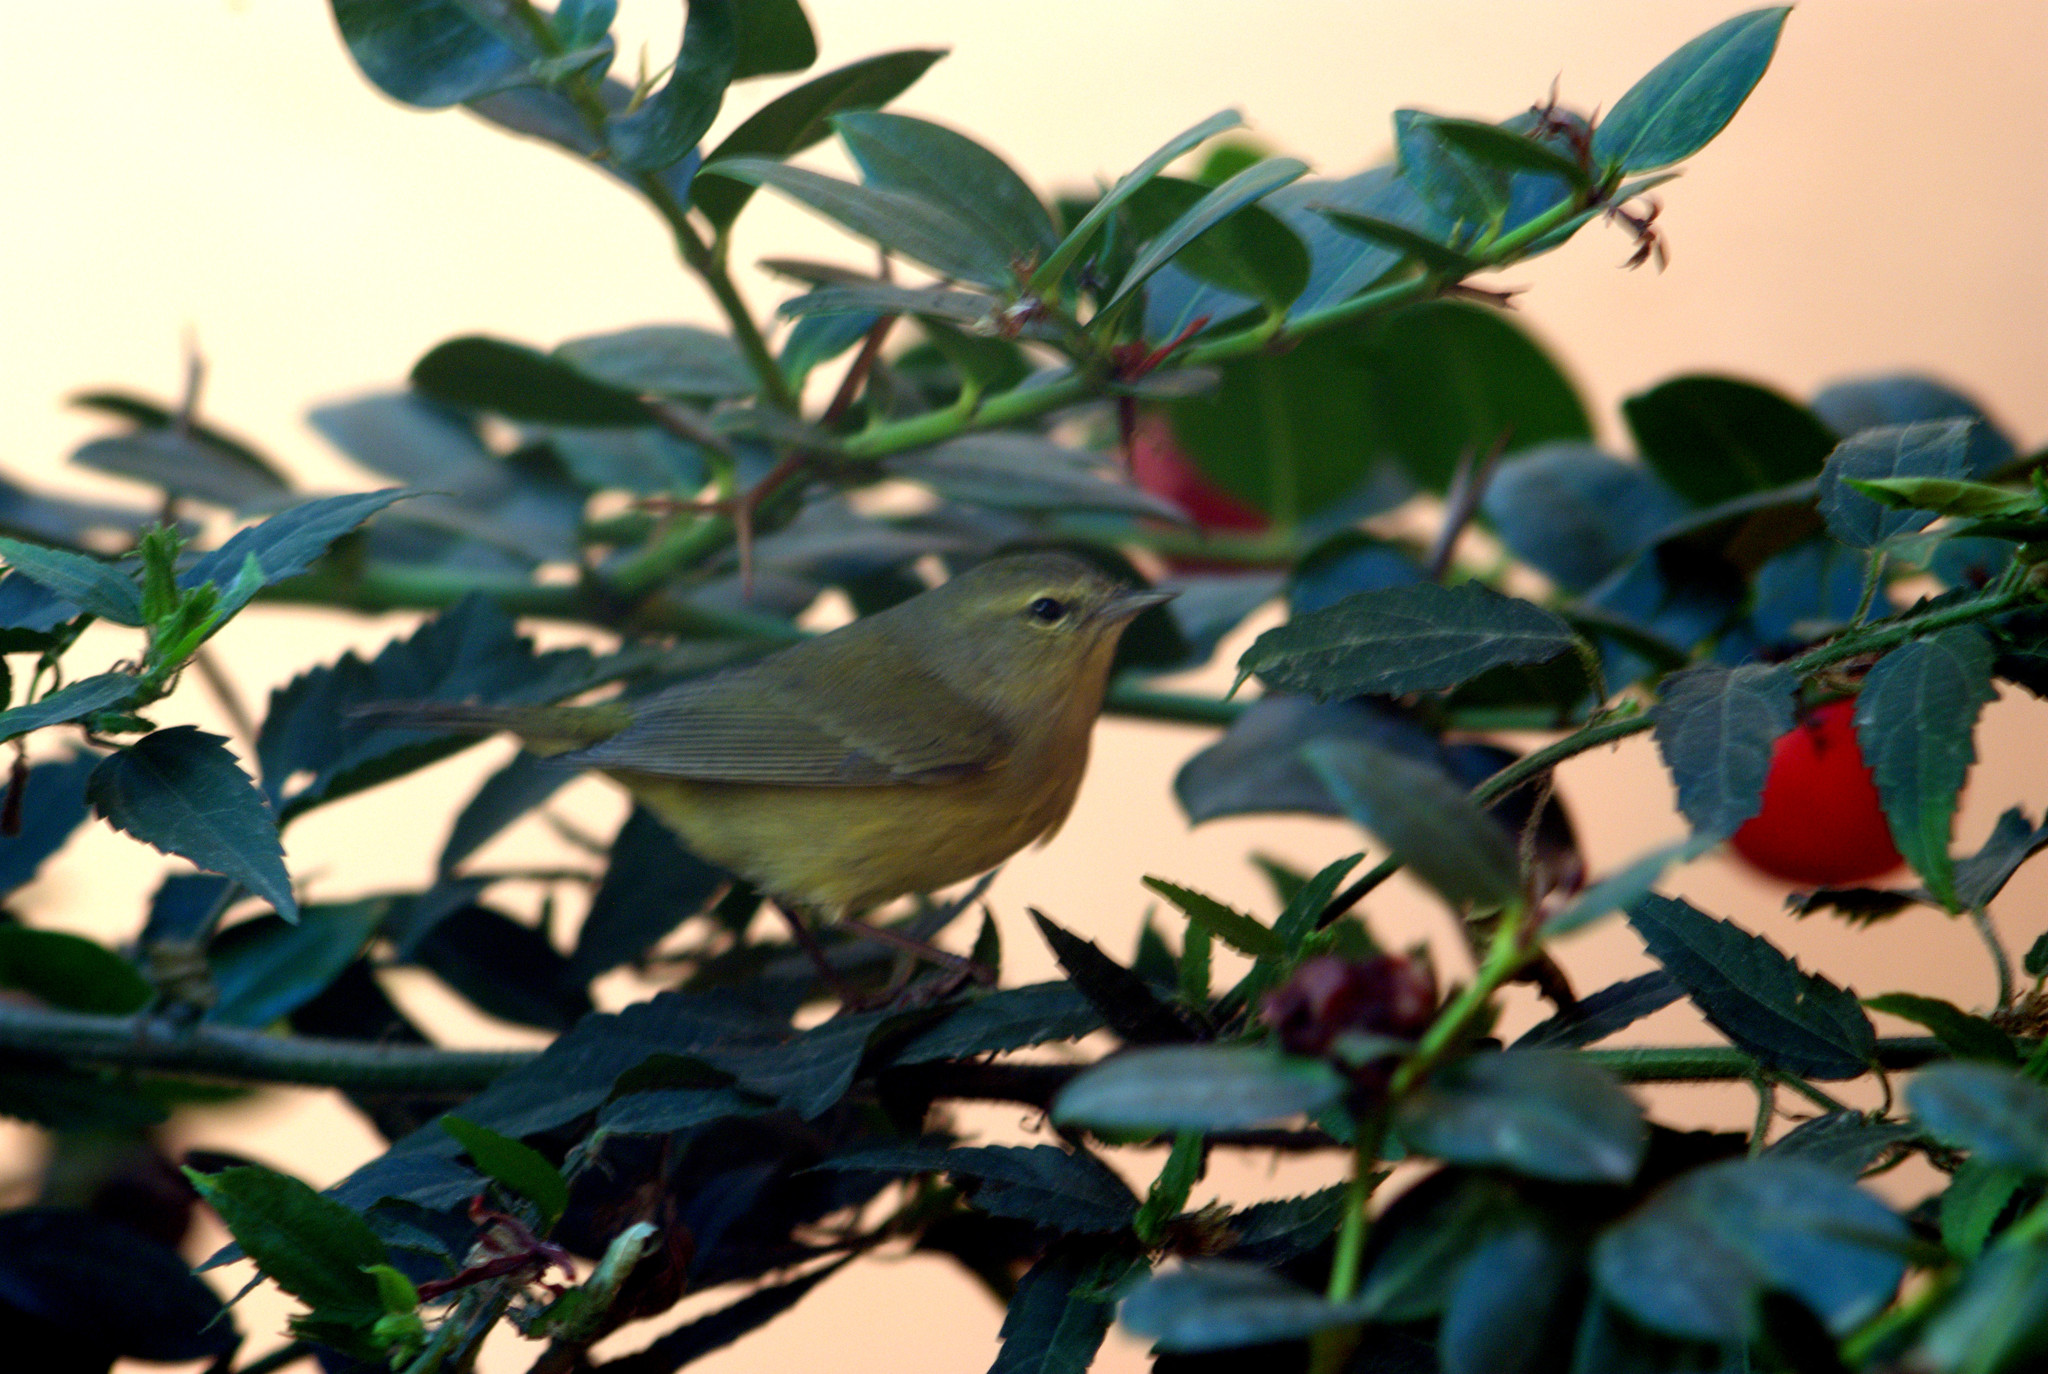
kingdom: Animalia
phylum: Chordata
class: Aves
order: Passeriformes
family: Parulidae
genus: Leiothlypis
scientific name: Leiothlypis celata
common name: Orange-crowned warbler
